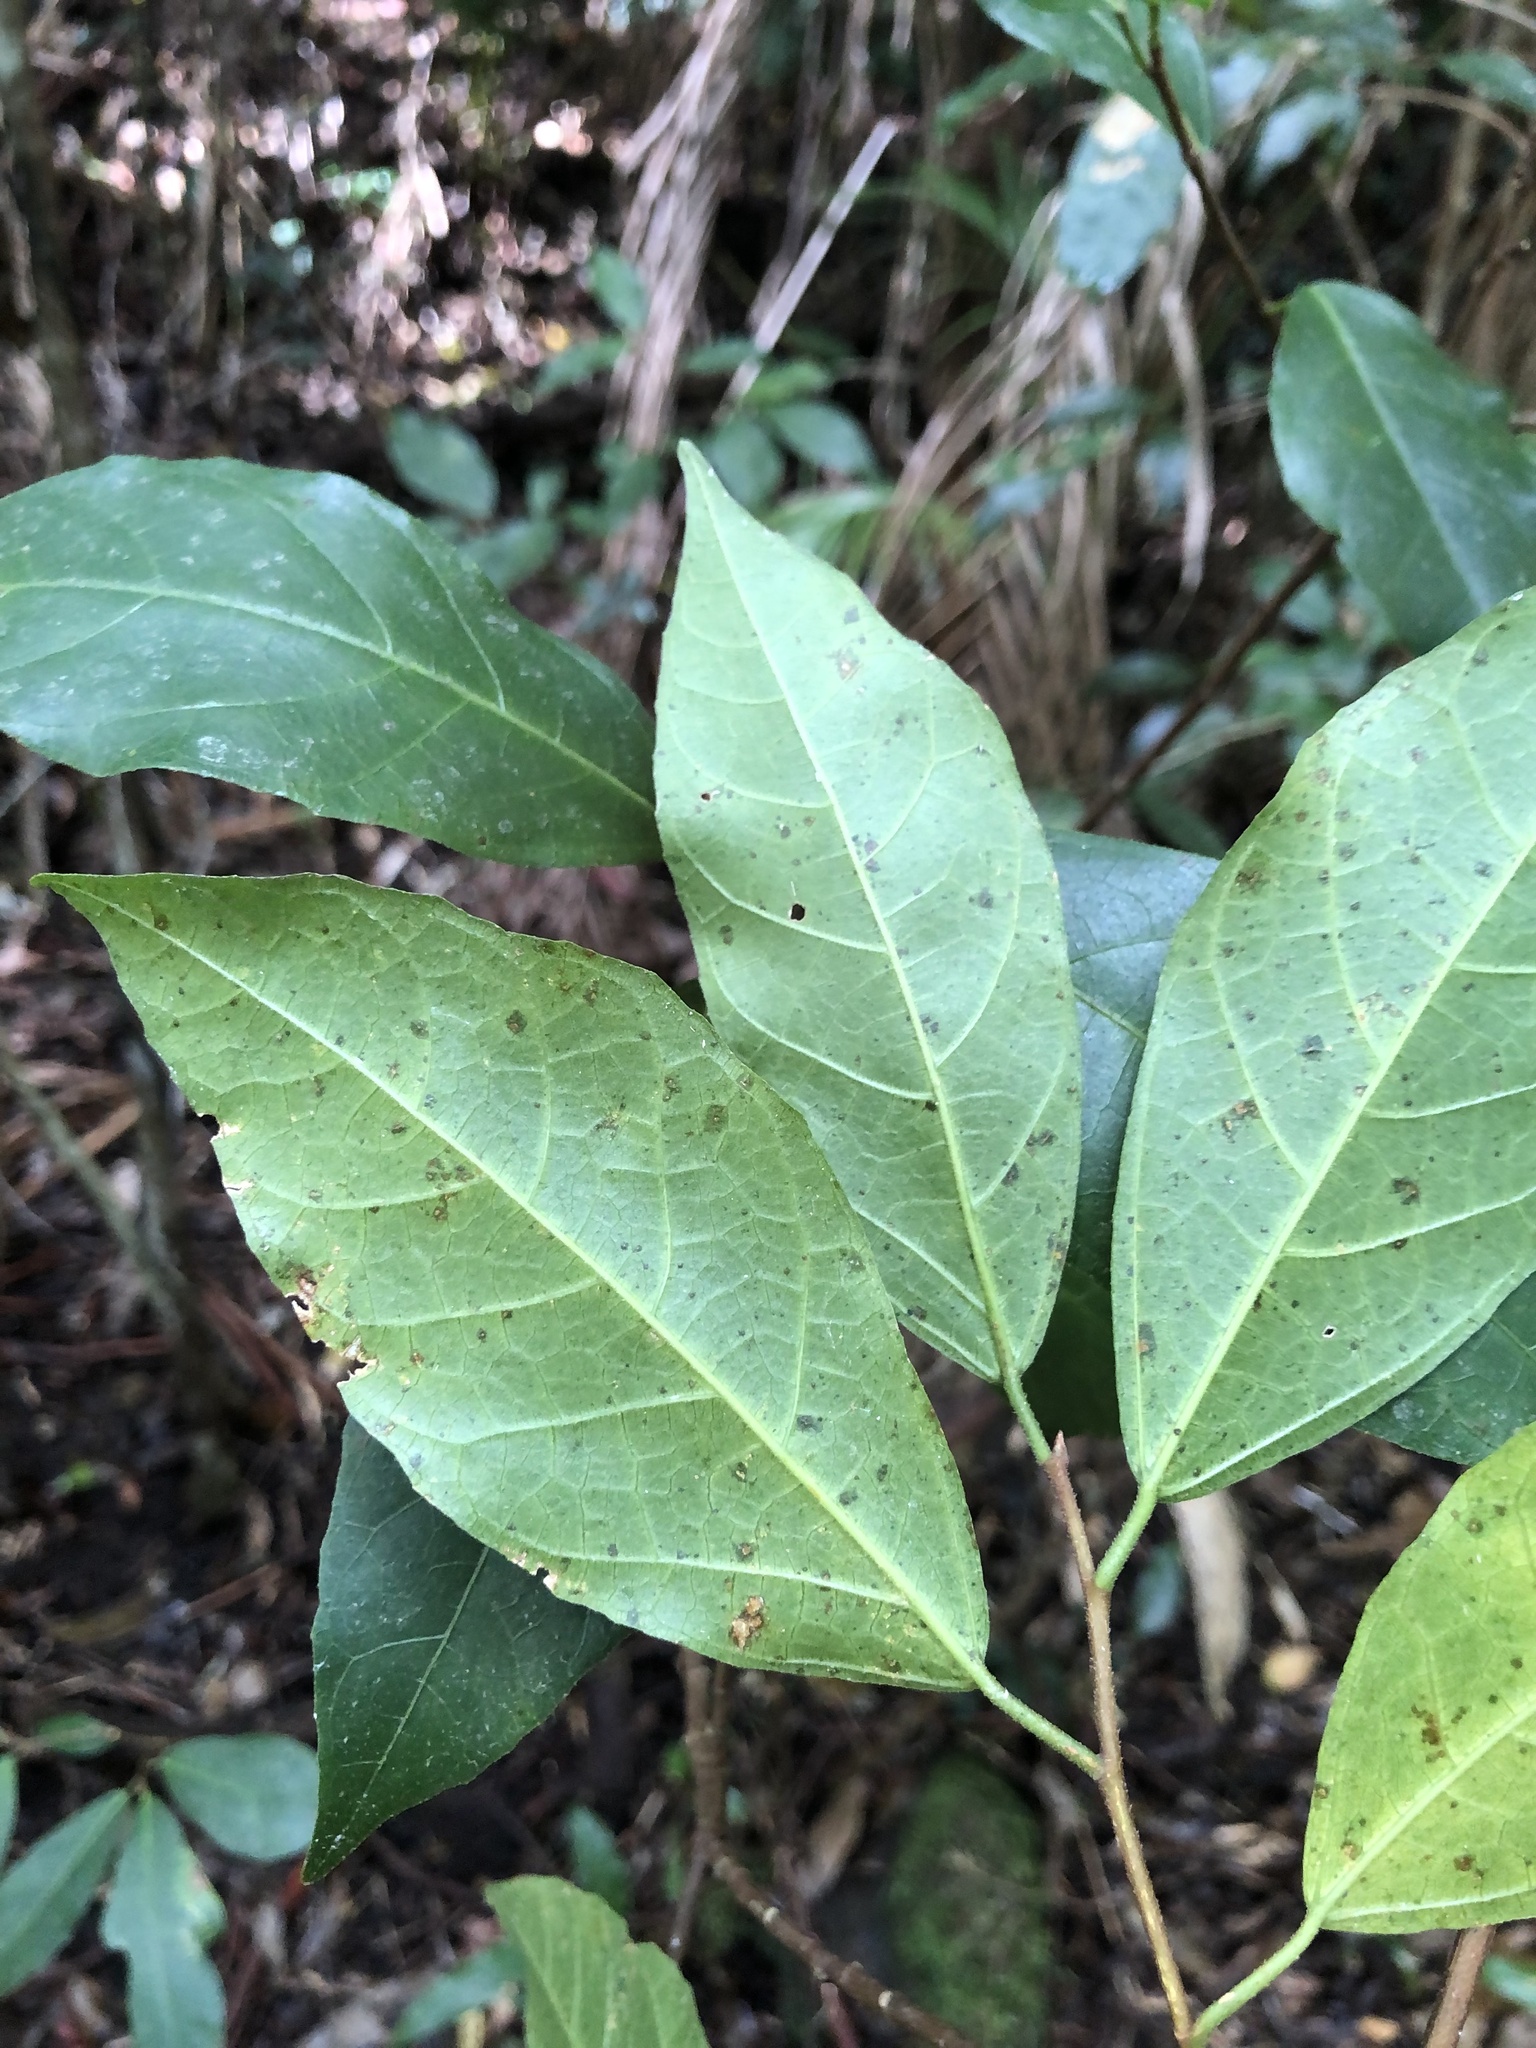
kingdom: Plantae
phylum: Tracheophyta
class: Magnoliopsida
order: Rosales
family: Moraceae
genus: Ficus
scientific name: Ficus fraseri
